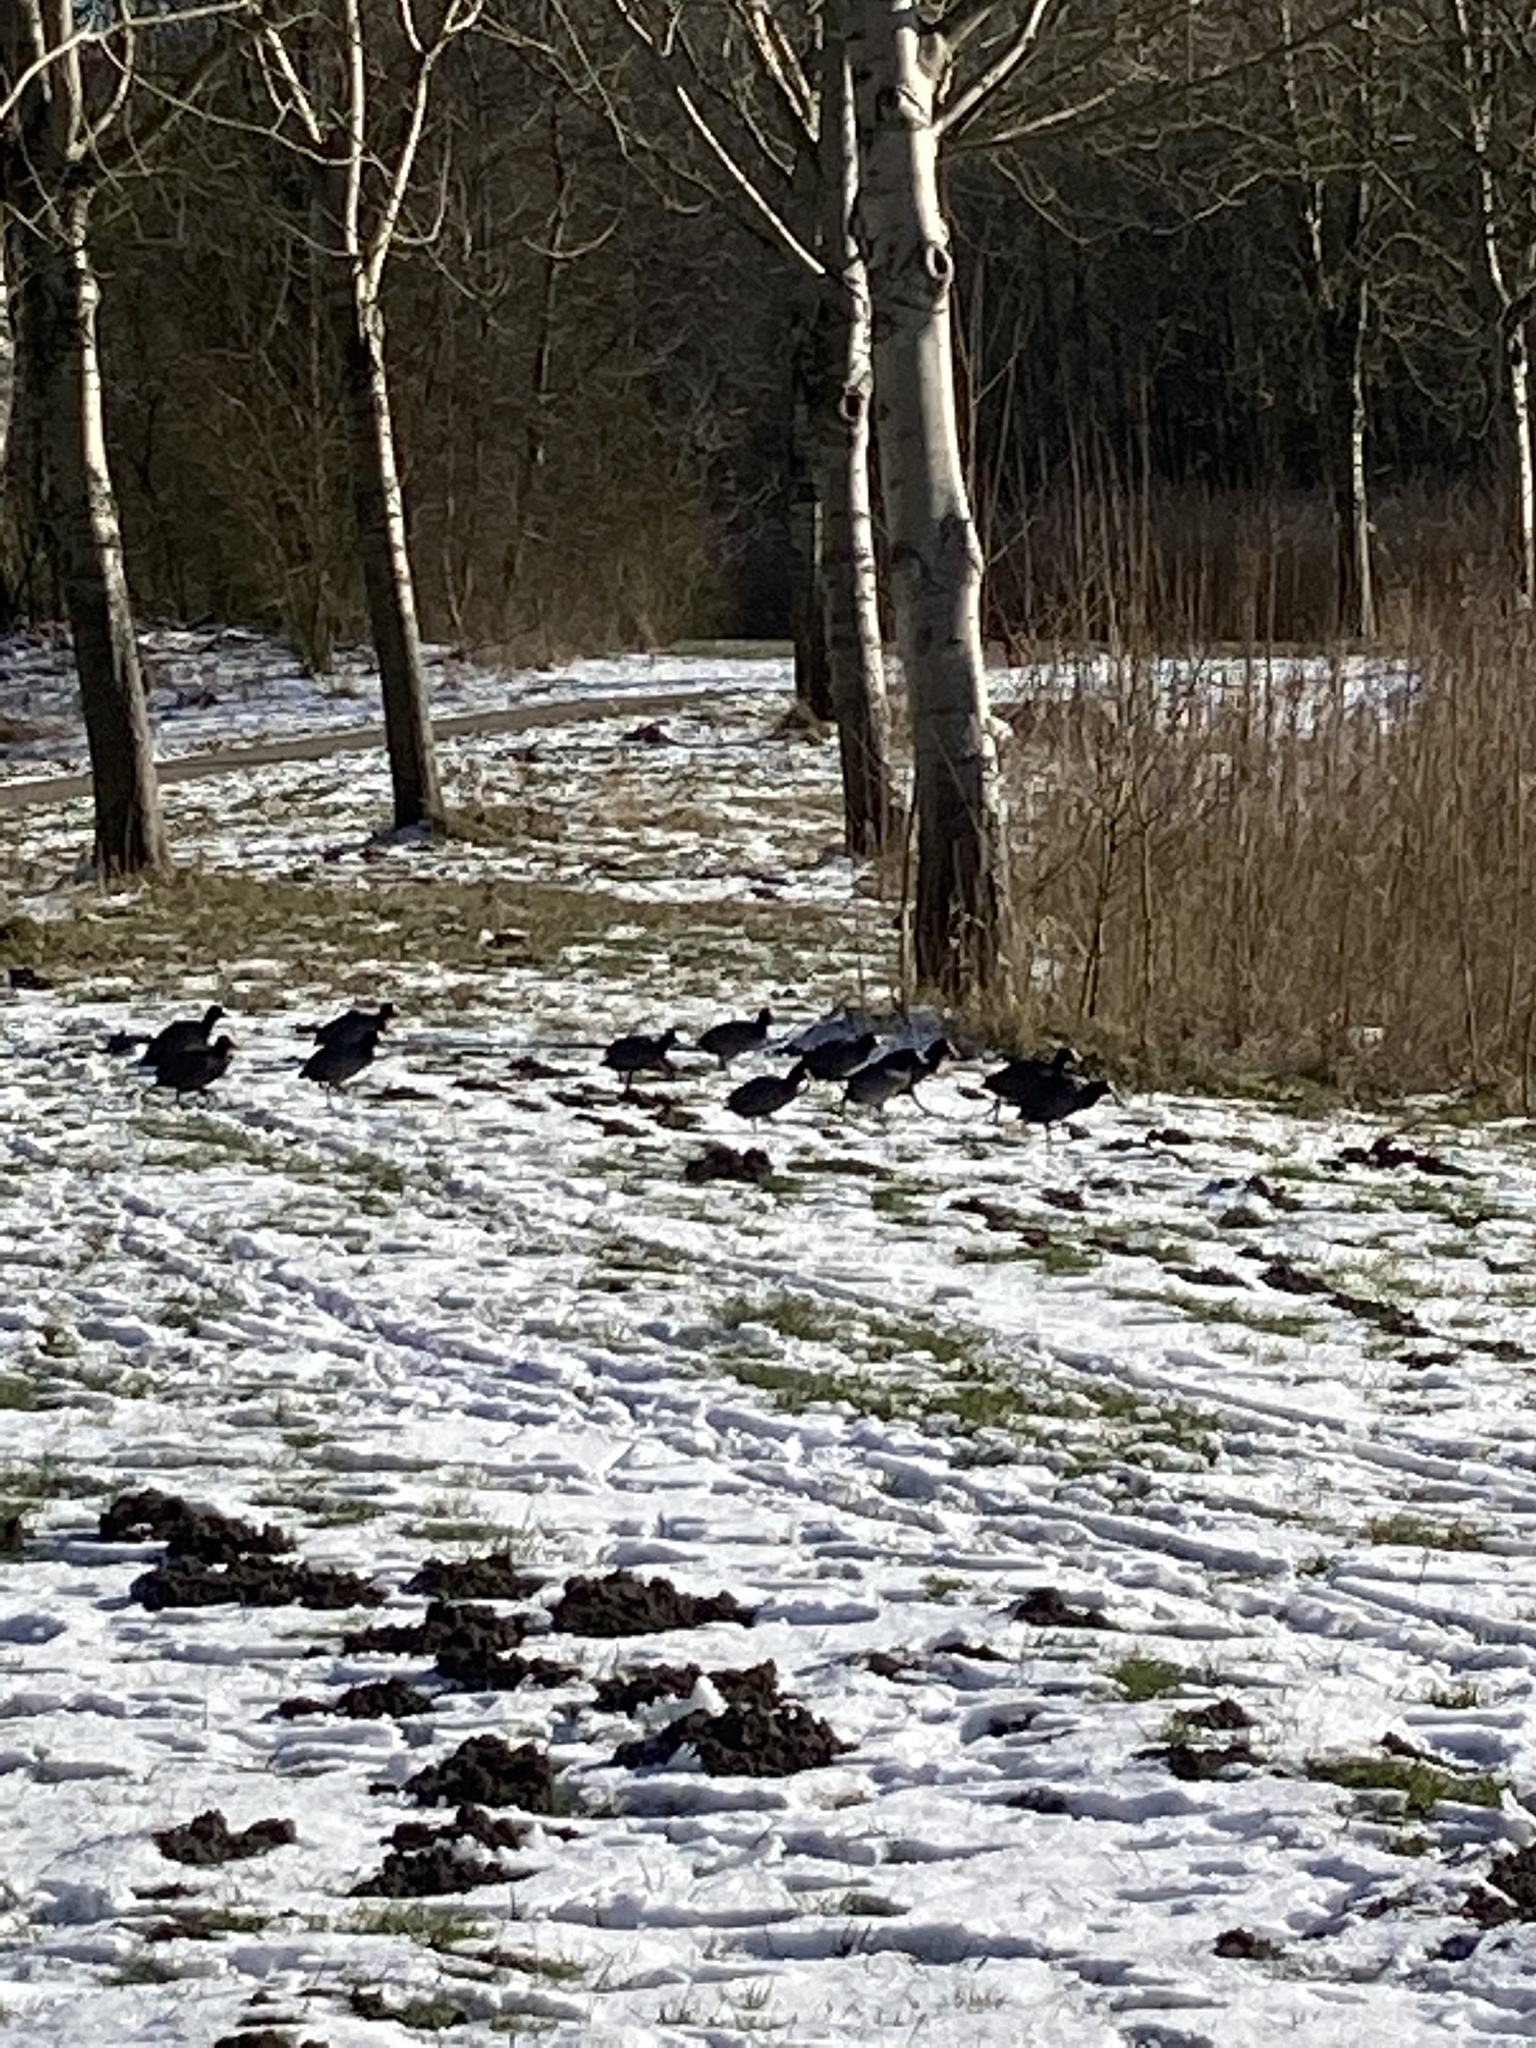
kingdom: Animalia
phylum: Chordata
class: Aves
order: Gruiformes
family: Rallidae
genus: Fulica
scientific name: Fulica atra
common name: Eurasian coot
